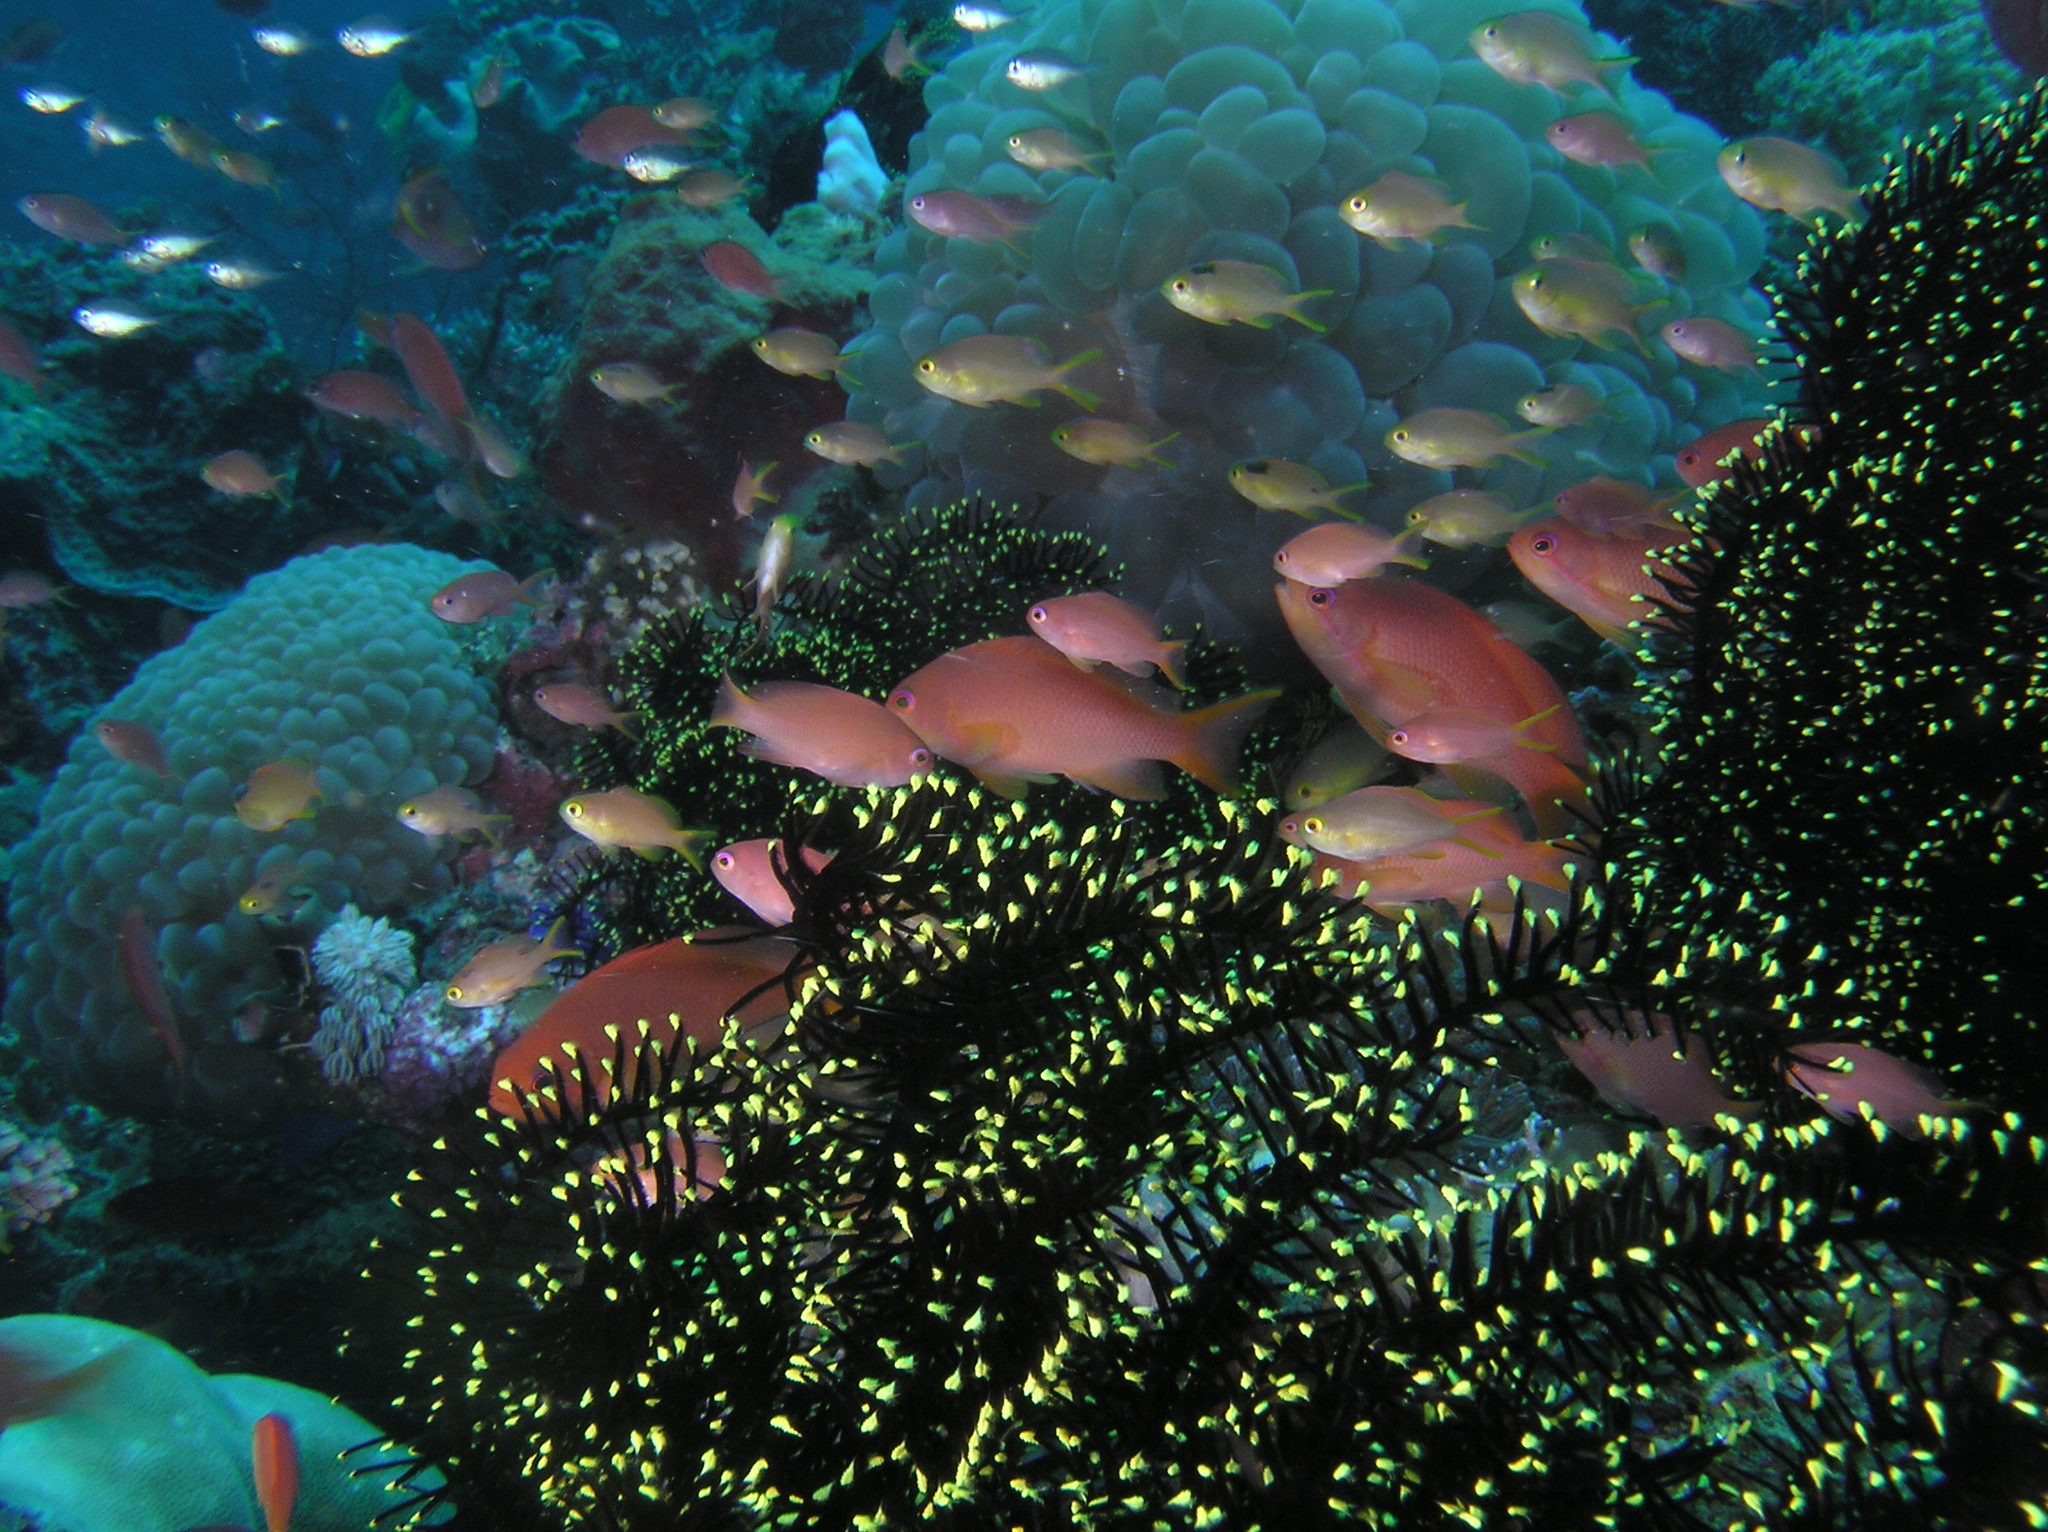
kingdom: Animalia
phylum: Chordata
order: Perciformes
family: Serranidae
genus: Pseudanthias
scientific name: Pseudanthias squamipinnis
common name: Scalefin anthias
